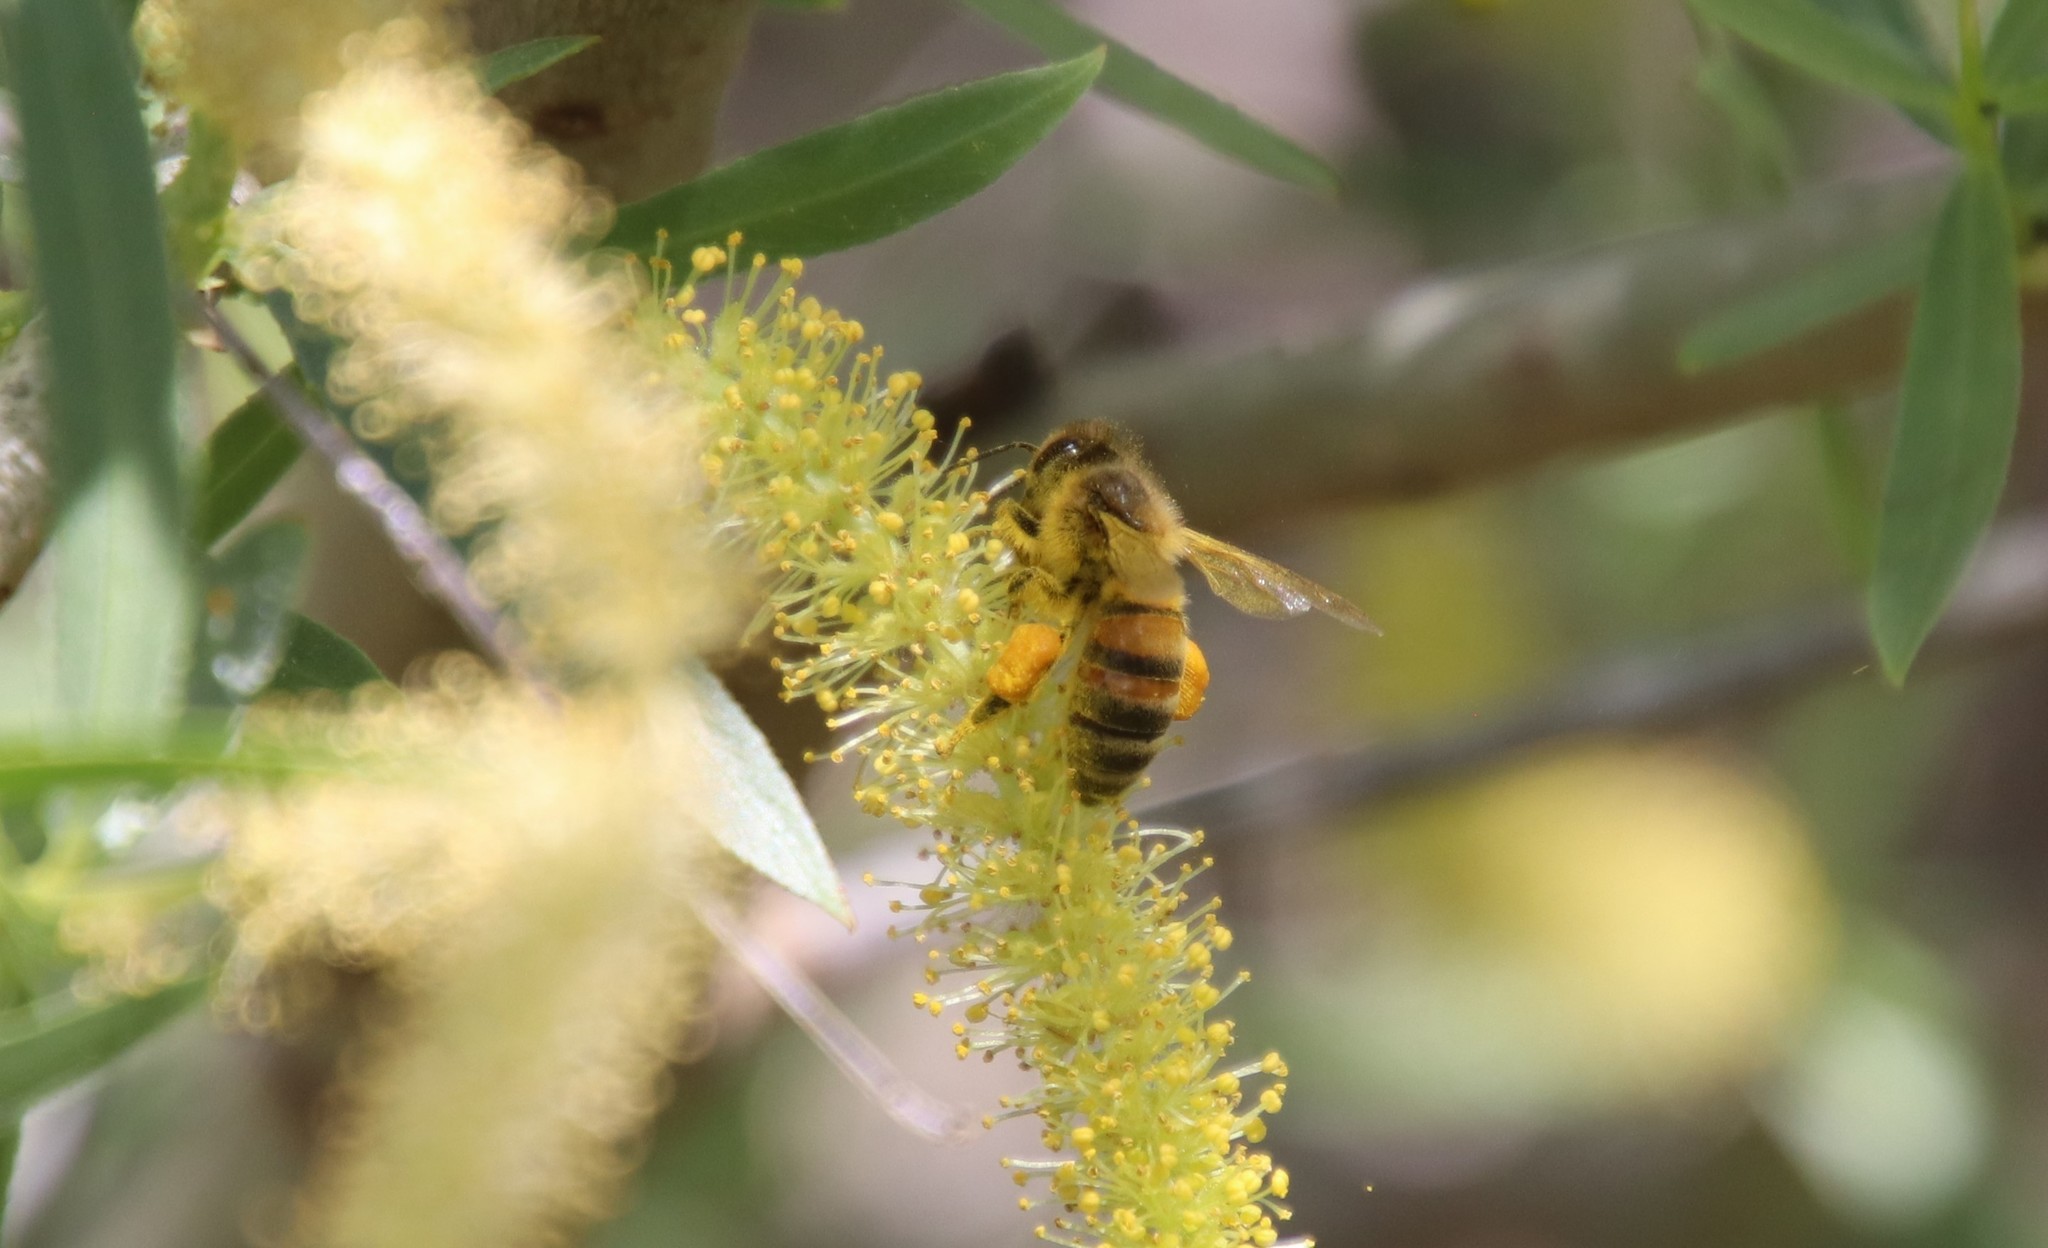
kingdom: Animalia
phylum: Arthropoda
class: Insecta
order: Hymenoptera
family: Apidae
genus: Apis
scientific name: Apis mellifera
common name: Honey bee
